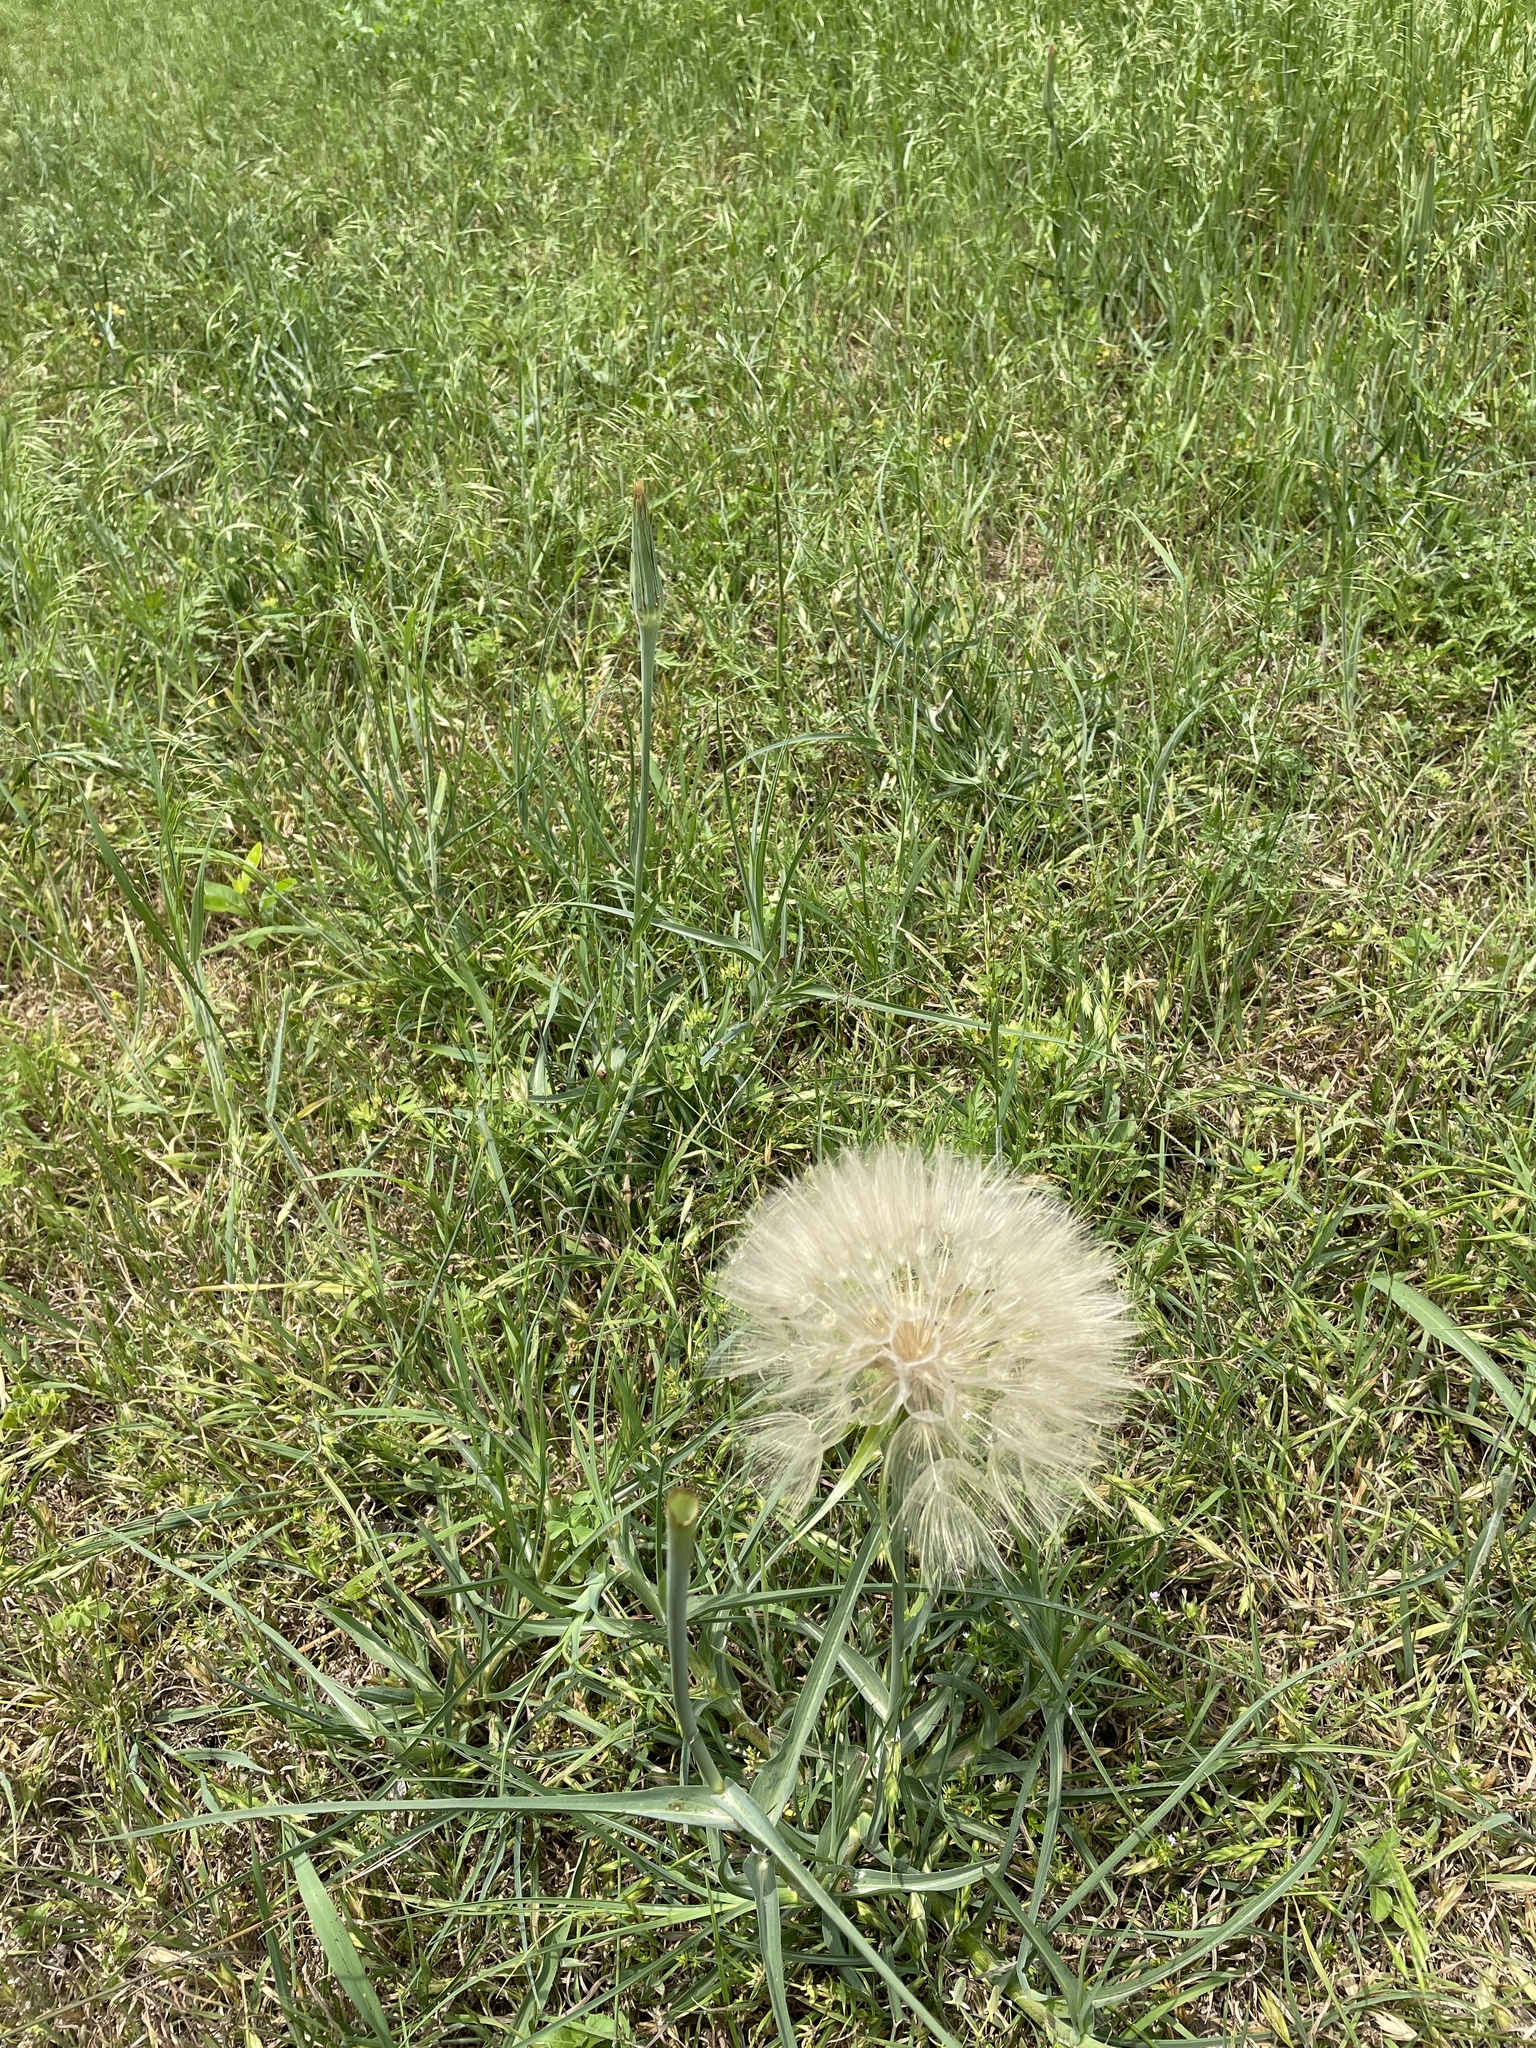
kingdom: Plantae
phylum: Tracheophyta
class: Magnoliopsida
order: Asterales
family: Asteraceae
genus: Tragopogon
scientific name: Tragopogon dubius
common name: Yellow salsify
